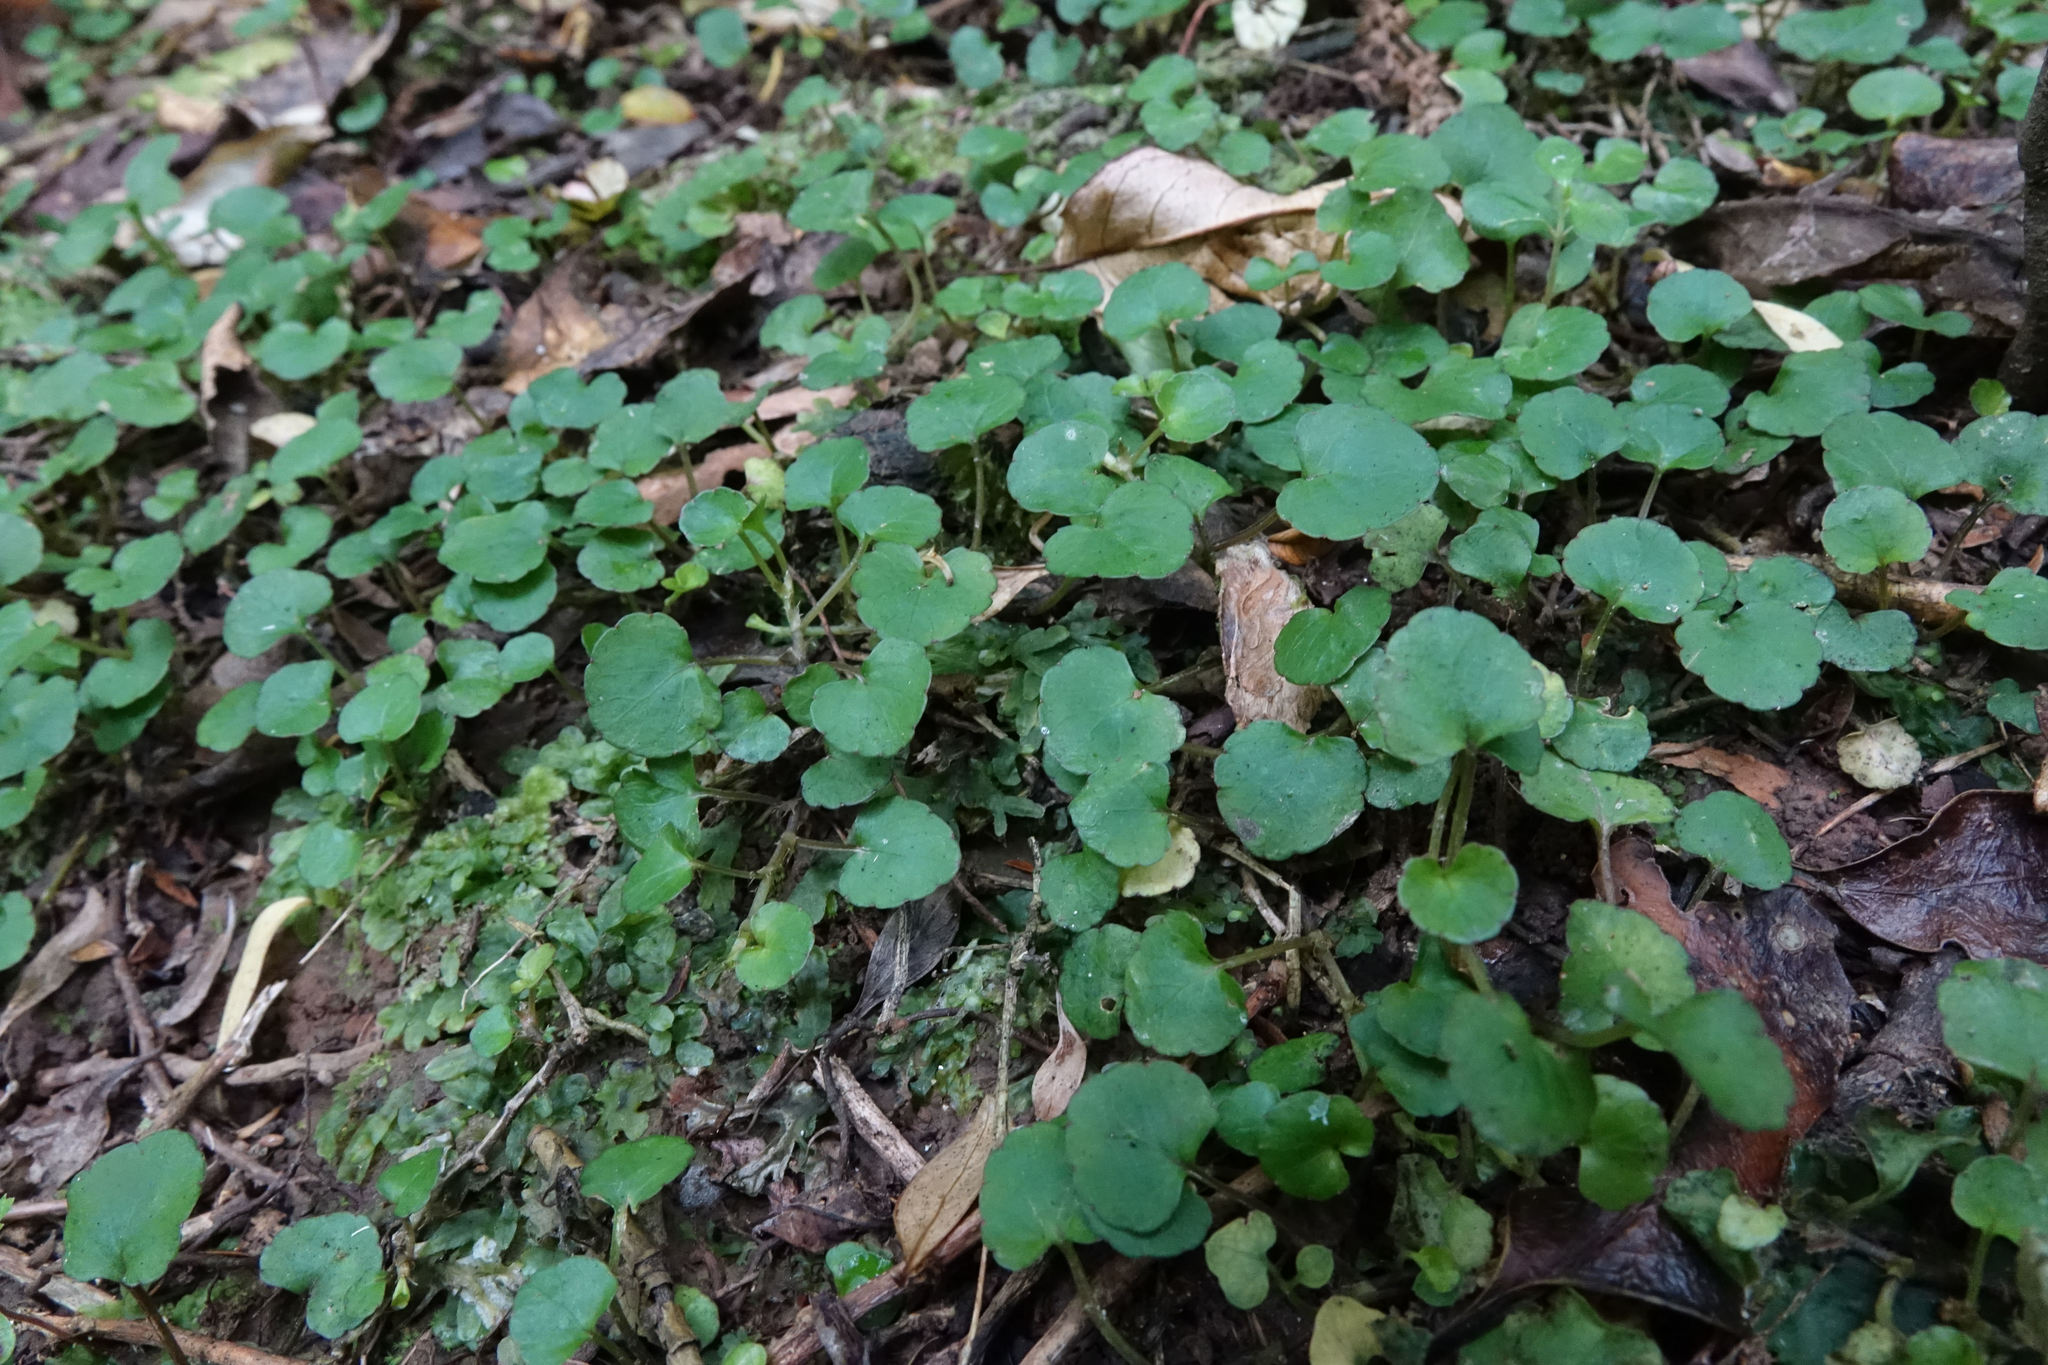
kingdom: Plantae
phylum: Tracheophyta
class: Magnoliopsida
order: Malpighiales
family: Violaceae
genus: Viola
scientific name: Viola filicaulis
